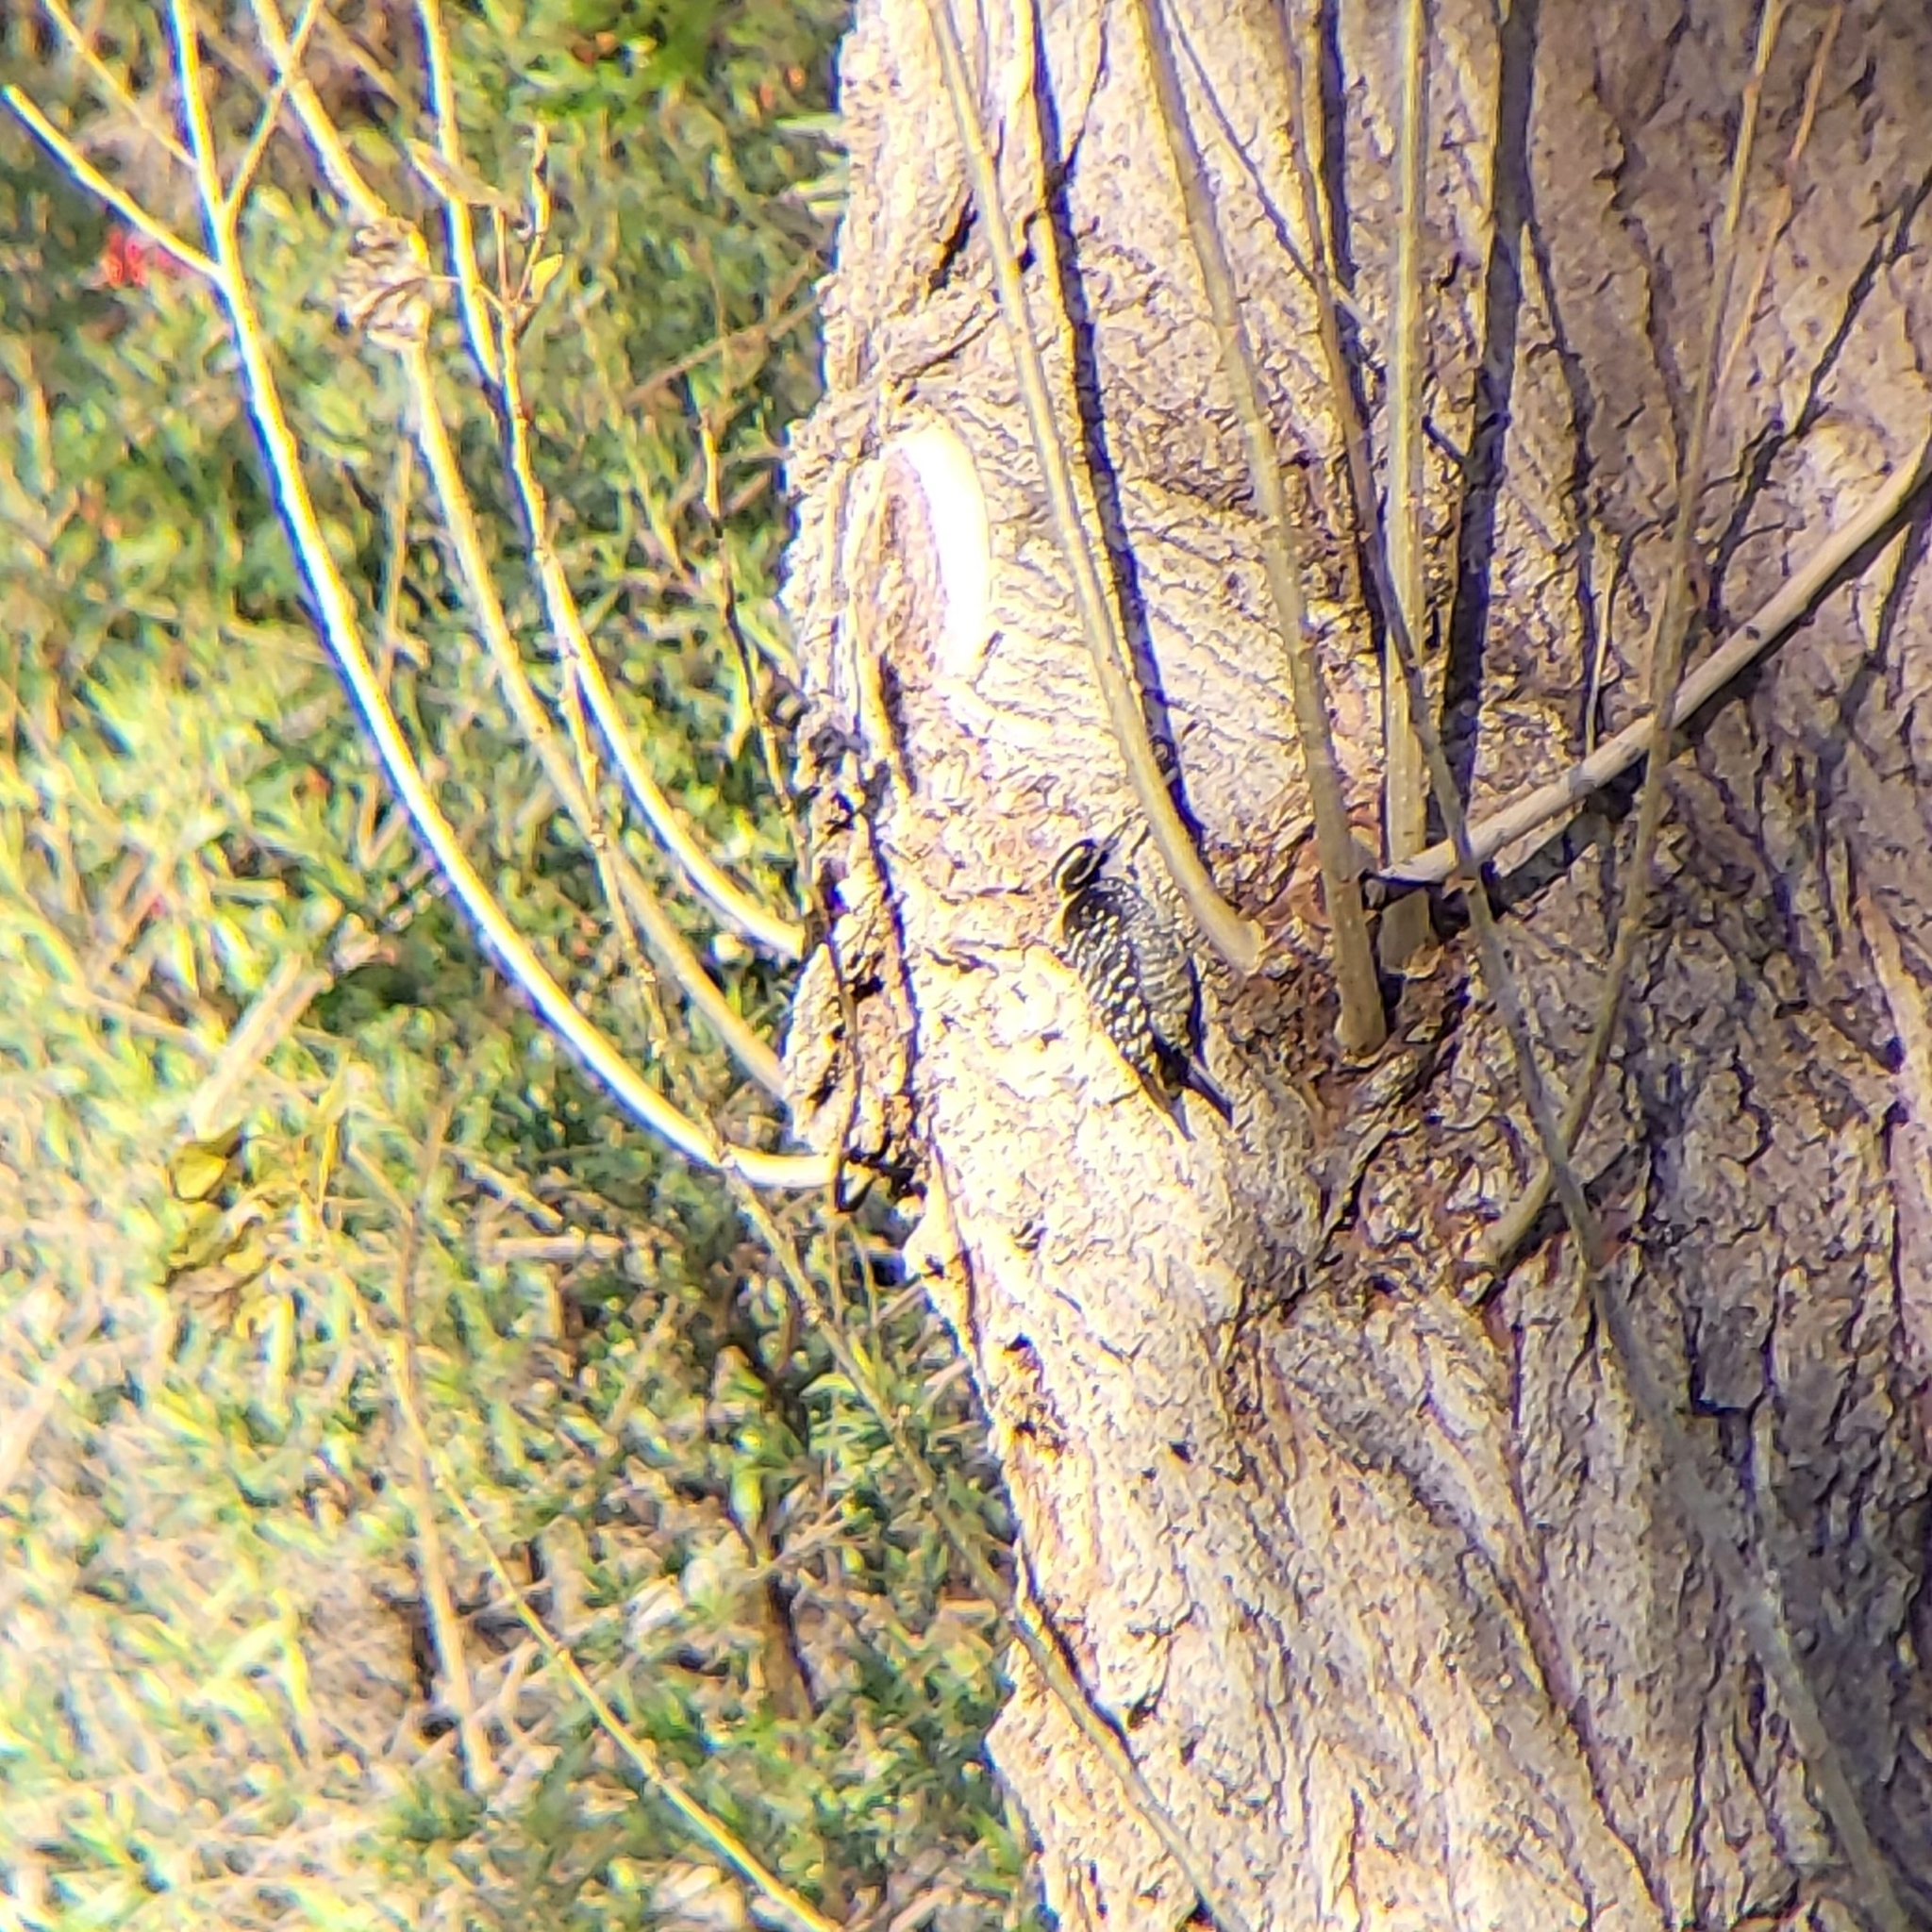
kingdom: Animalia
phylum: Chordata
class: Aves
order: Piciformes
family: Picidae
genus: Dryobates
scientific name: Dryobates nuttallii
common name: Nuttall's woodpecker
